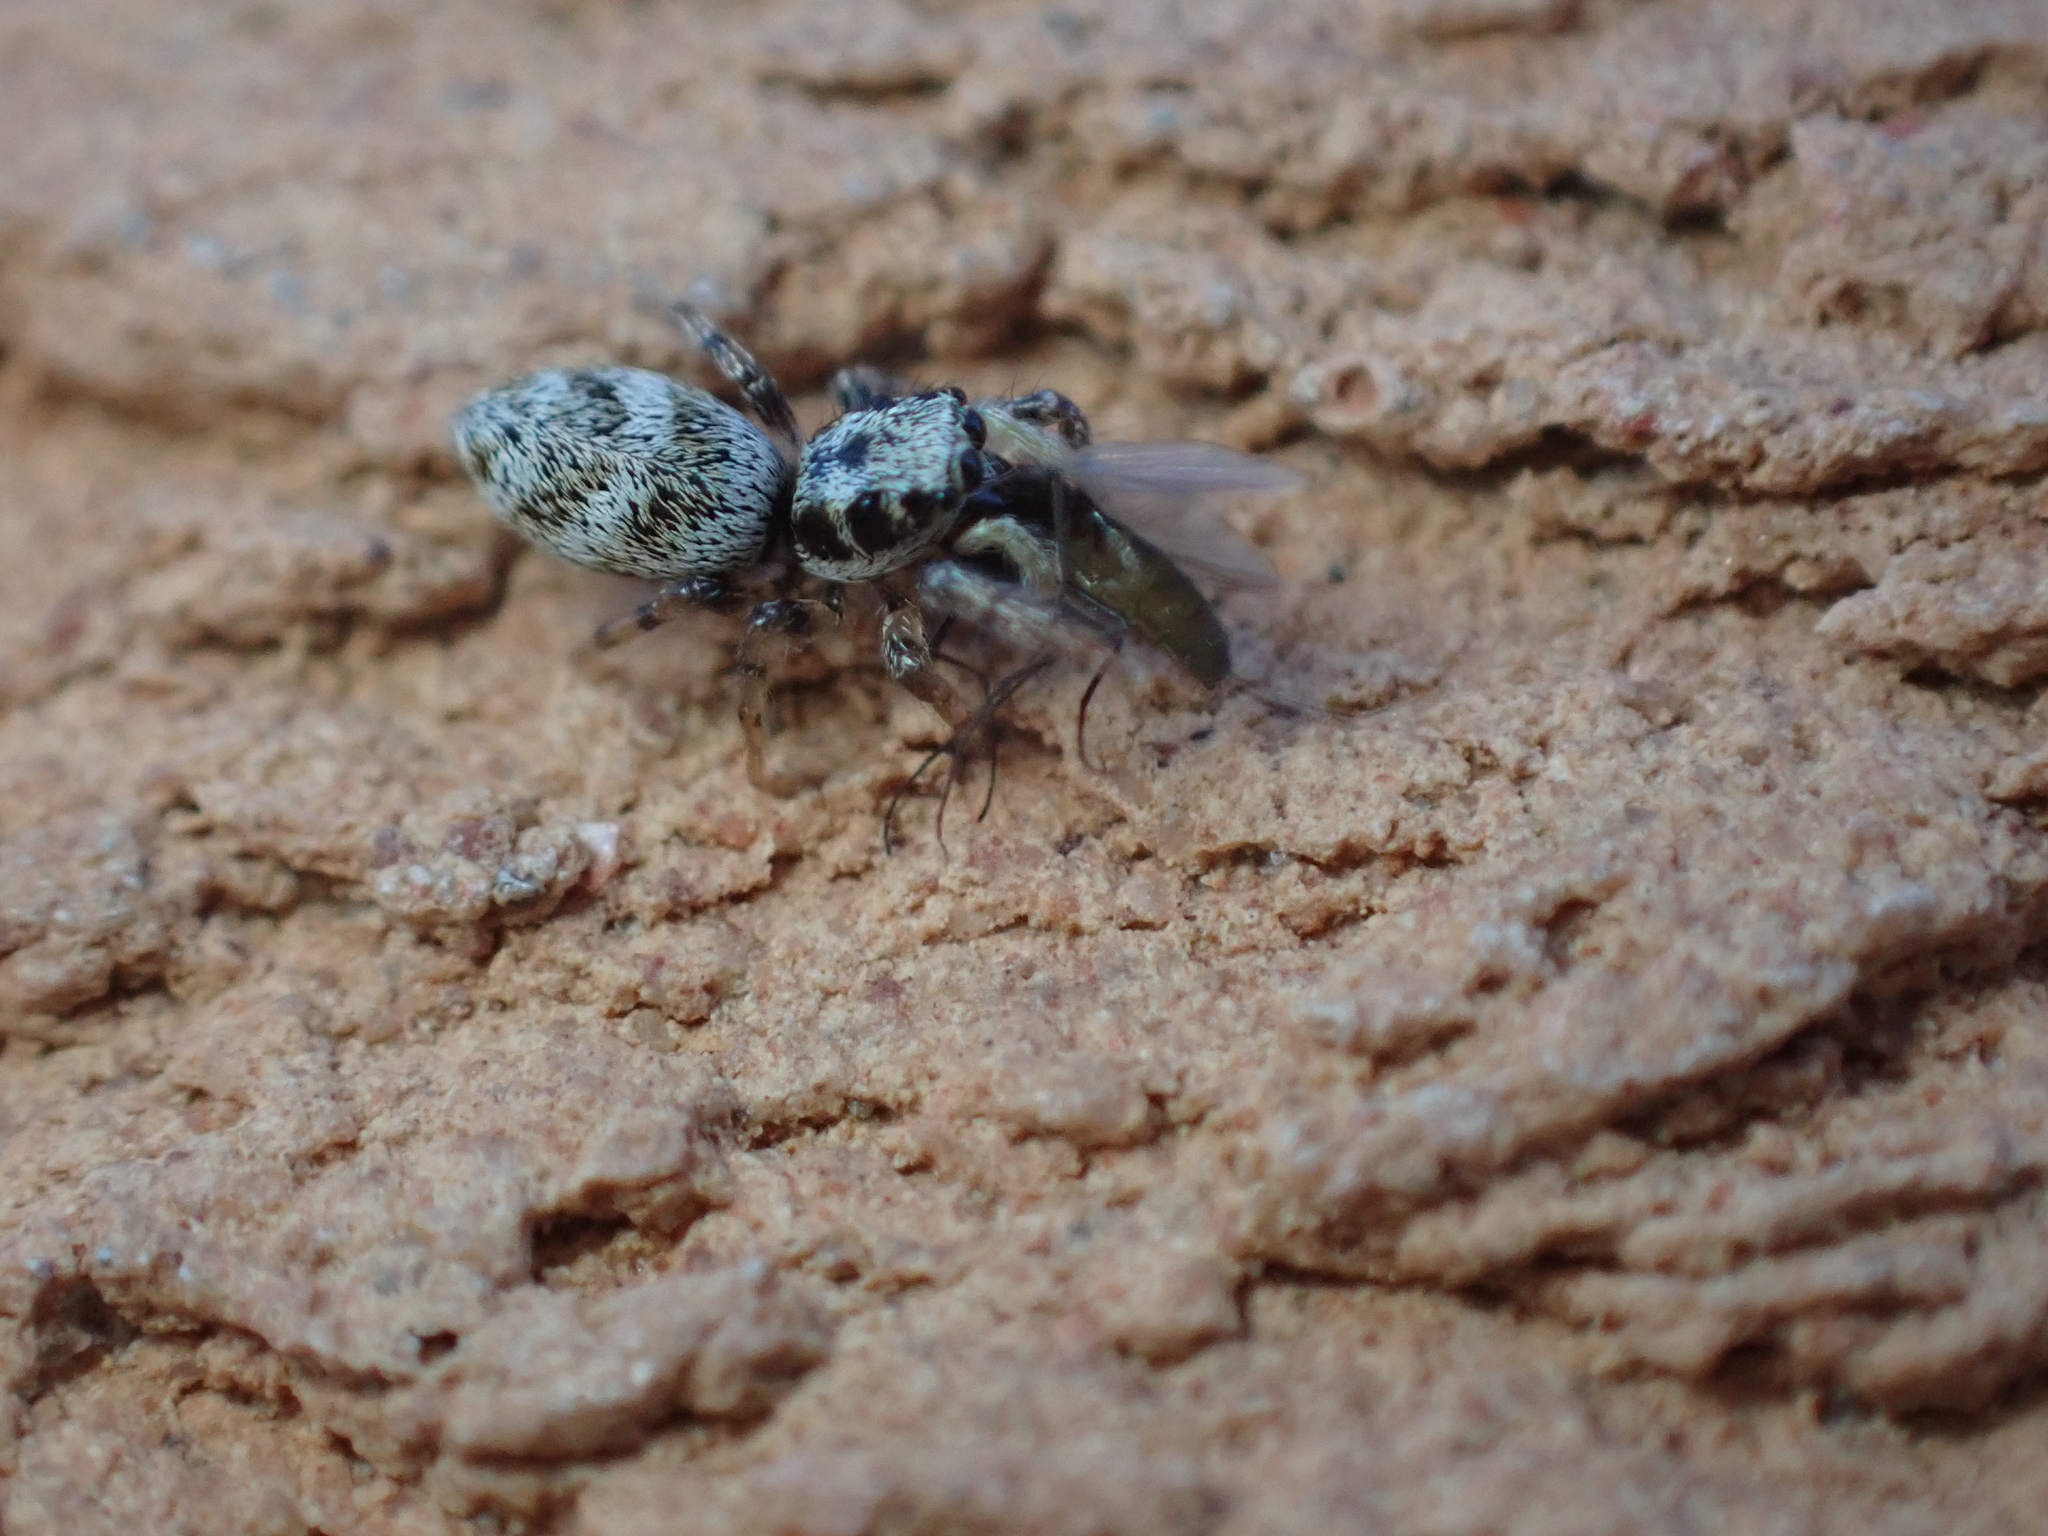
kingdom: Animalia
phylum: Arthropoda
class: Arachnida
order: Araneae
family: Salticidae
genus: Salticus
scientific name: Salticus scenicus
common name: Zebra jumper
